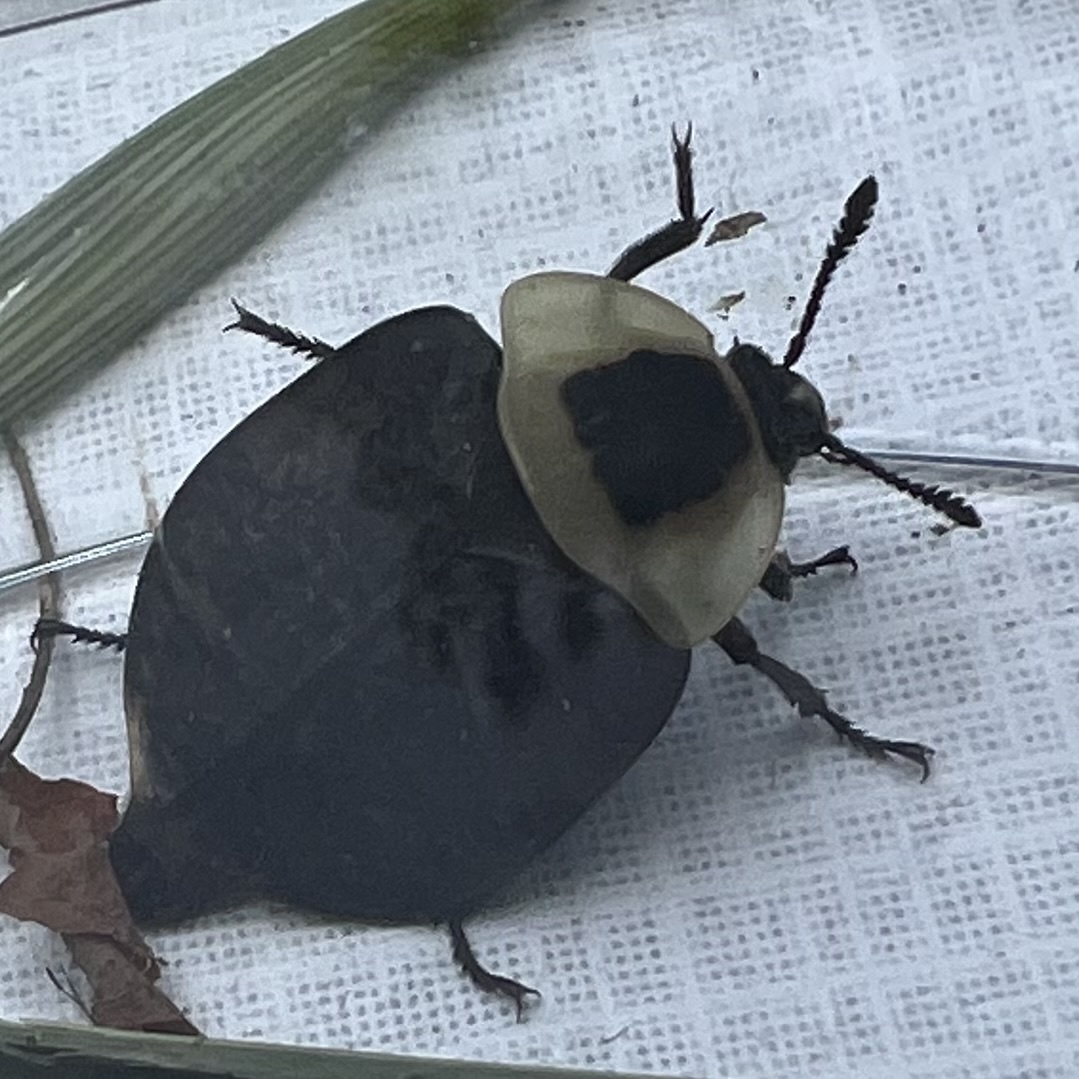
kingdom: Animalia
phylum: Arthropoda
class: Insecta
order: Coleoptera
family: Staphylinidae
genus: Necrophila
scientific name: Necrophila americana
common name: American carrion beetle
